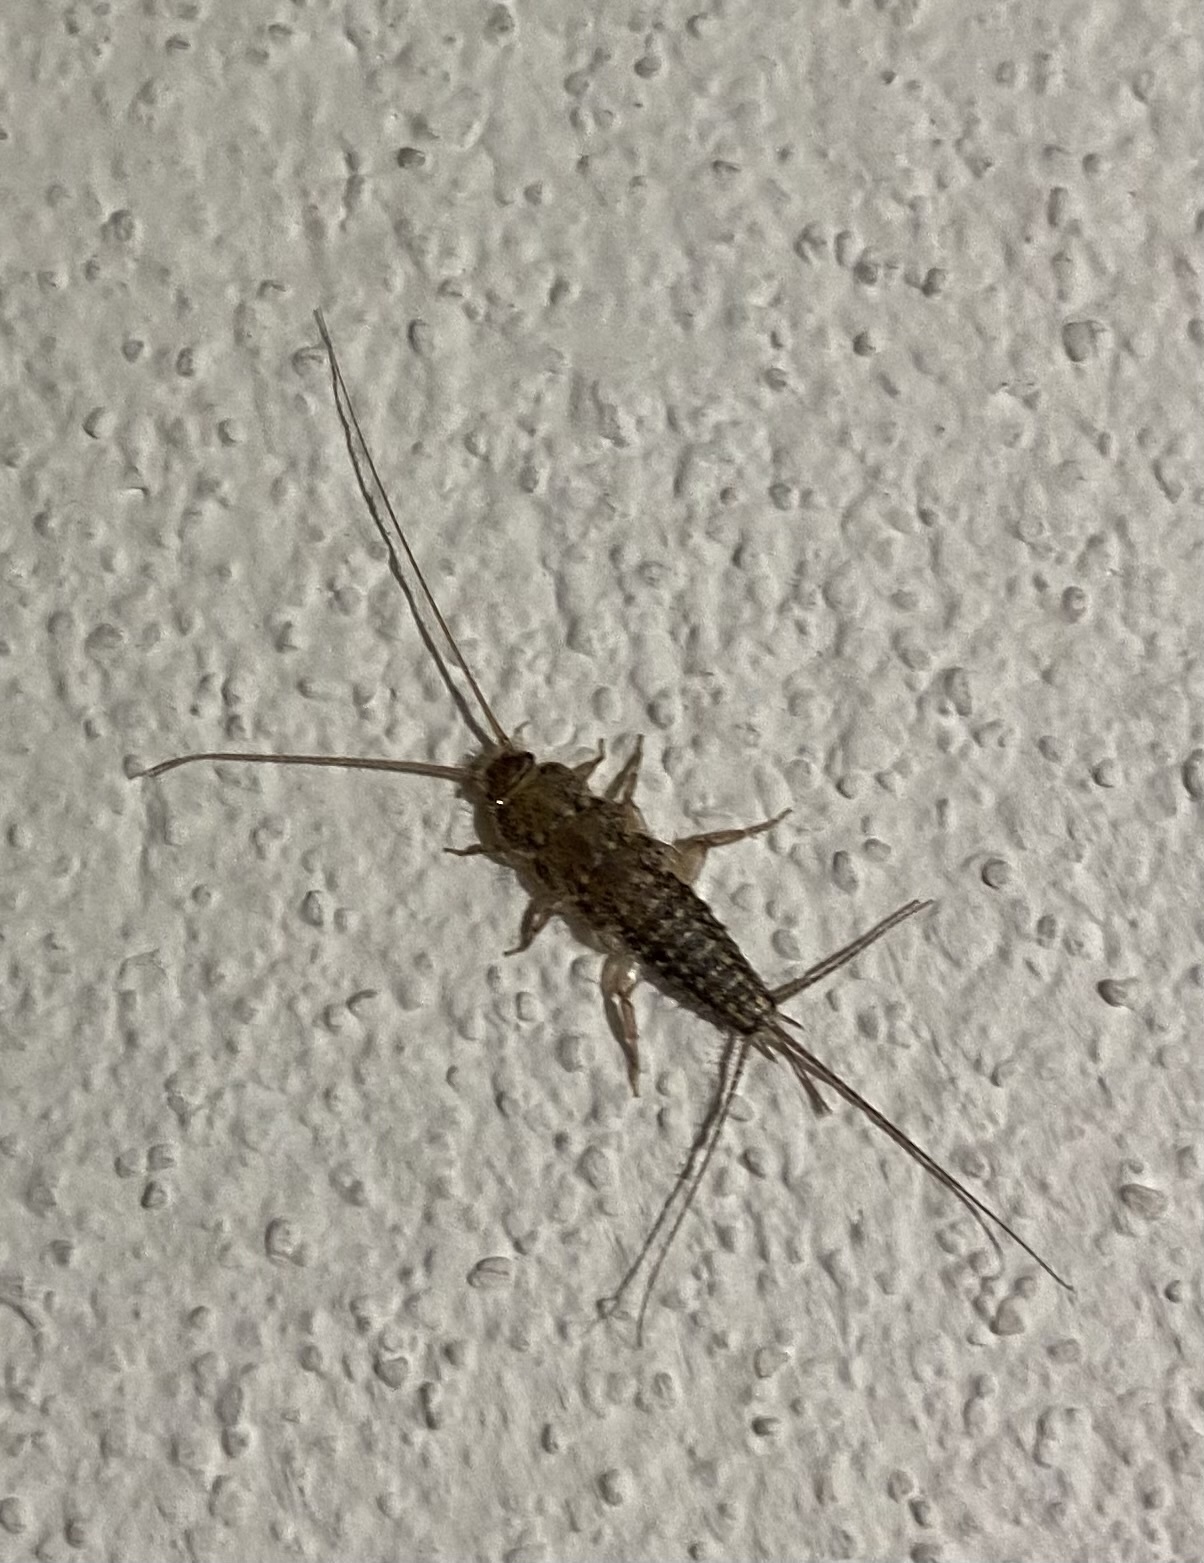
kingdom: Animalia
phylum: Arthropoda
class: Insecta
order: Zygentoma
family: Lepismatidae
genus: Ctenolepisma
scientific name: Ctenolepisma lineata
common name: Four-lined silverfish
